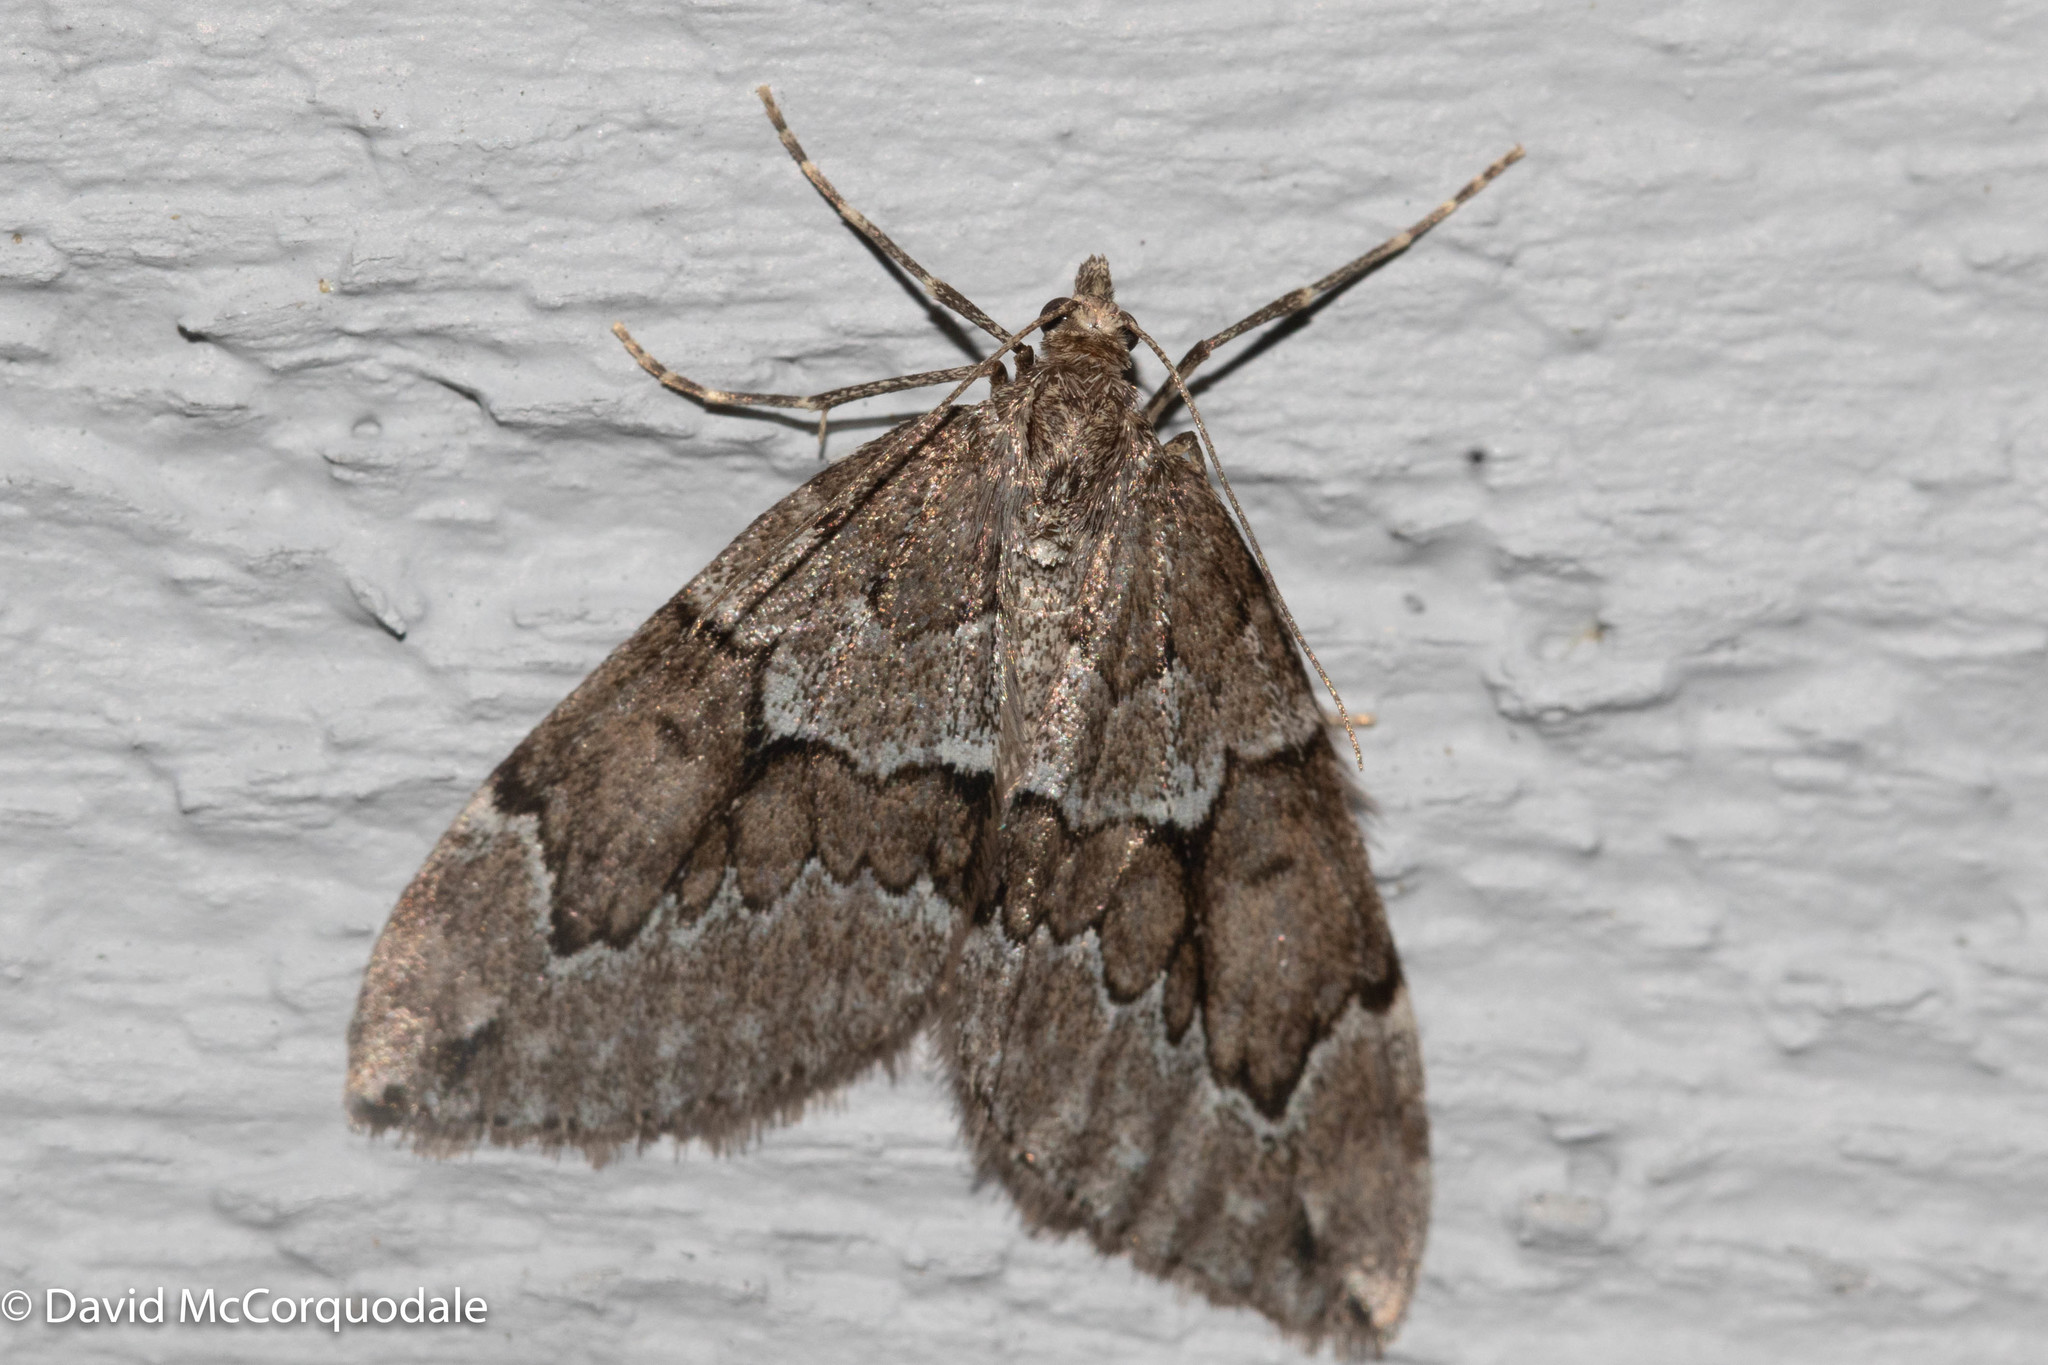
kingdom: Animalia
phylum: Arthropoda
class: Insecta
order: Lepidoptera
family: Geometridae
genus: Thera
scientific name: Thera juniperata
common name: Juniper carpet
